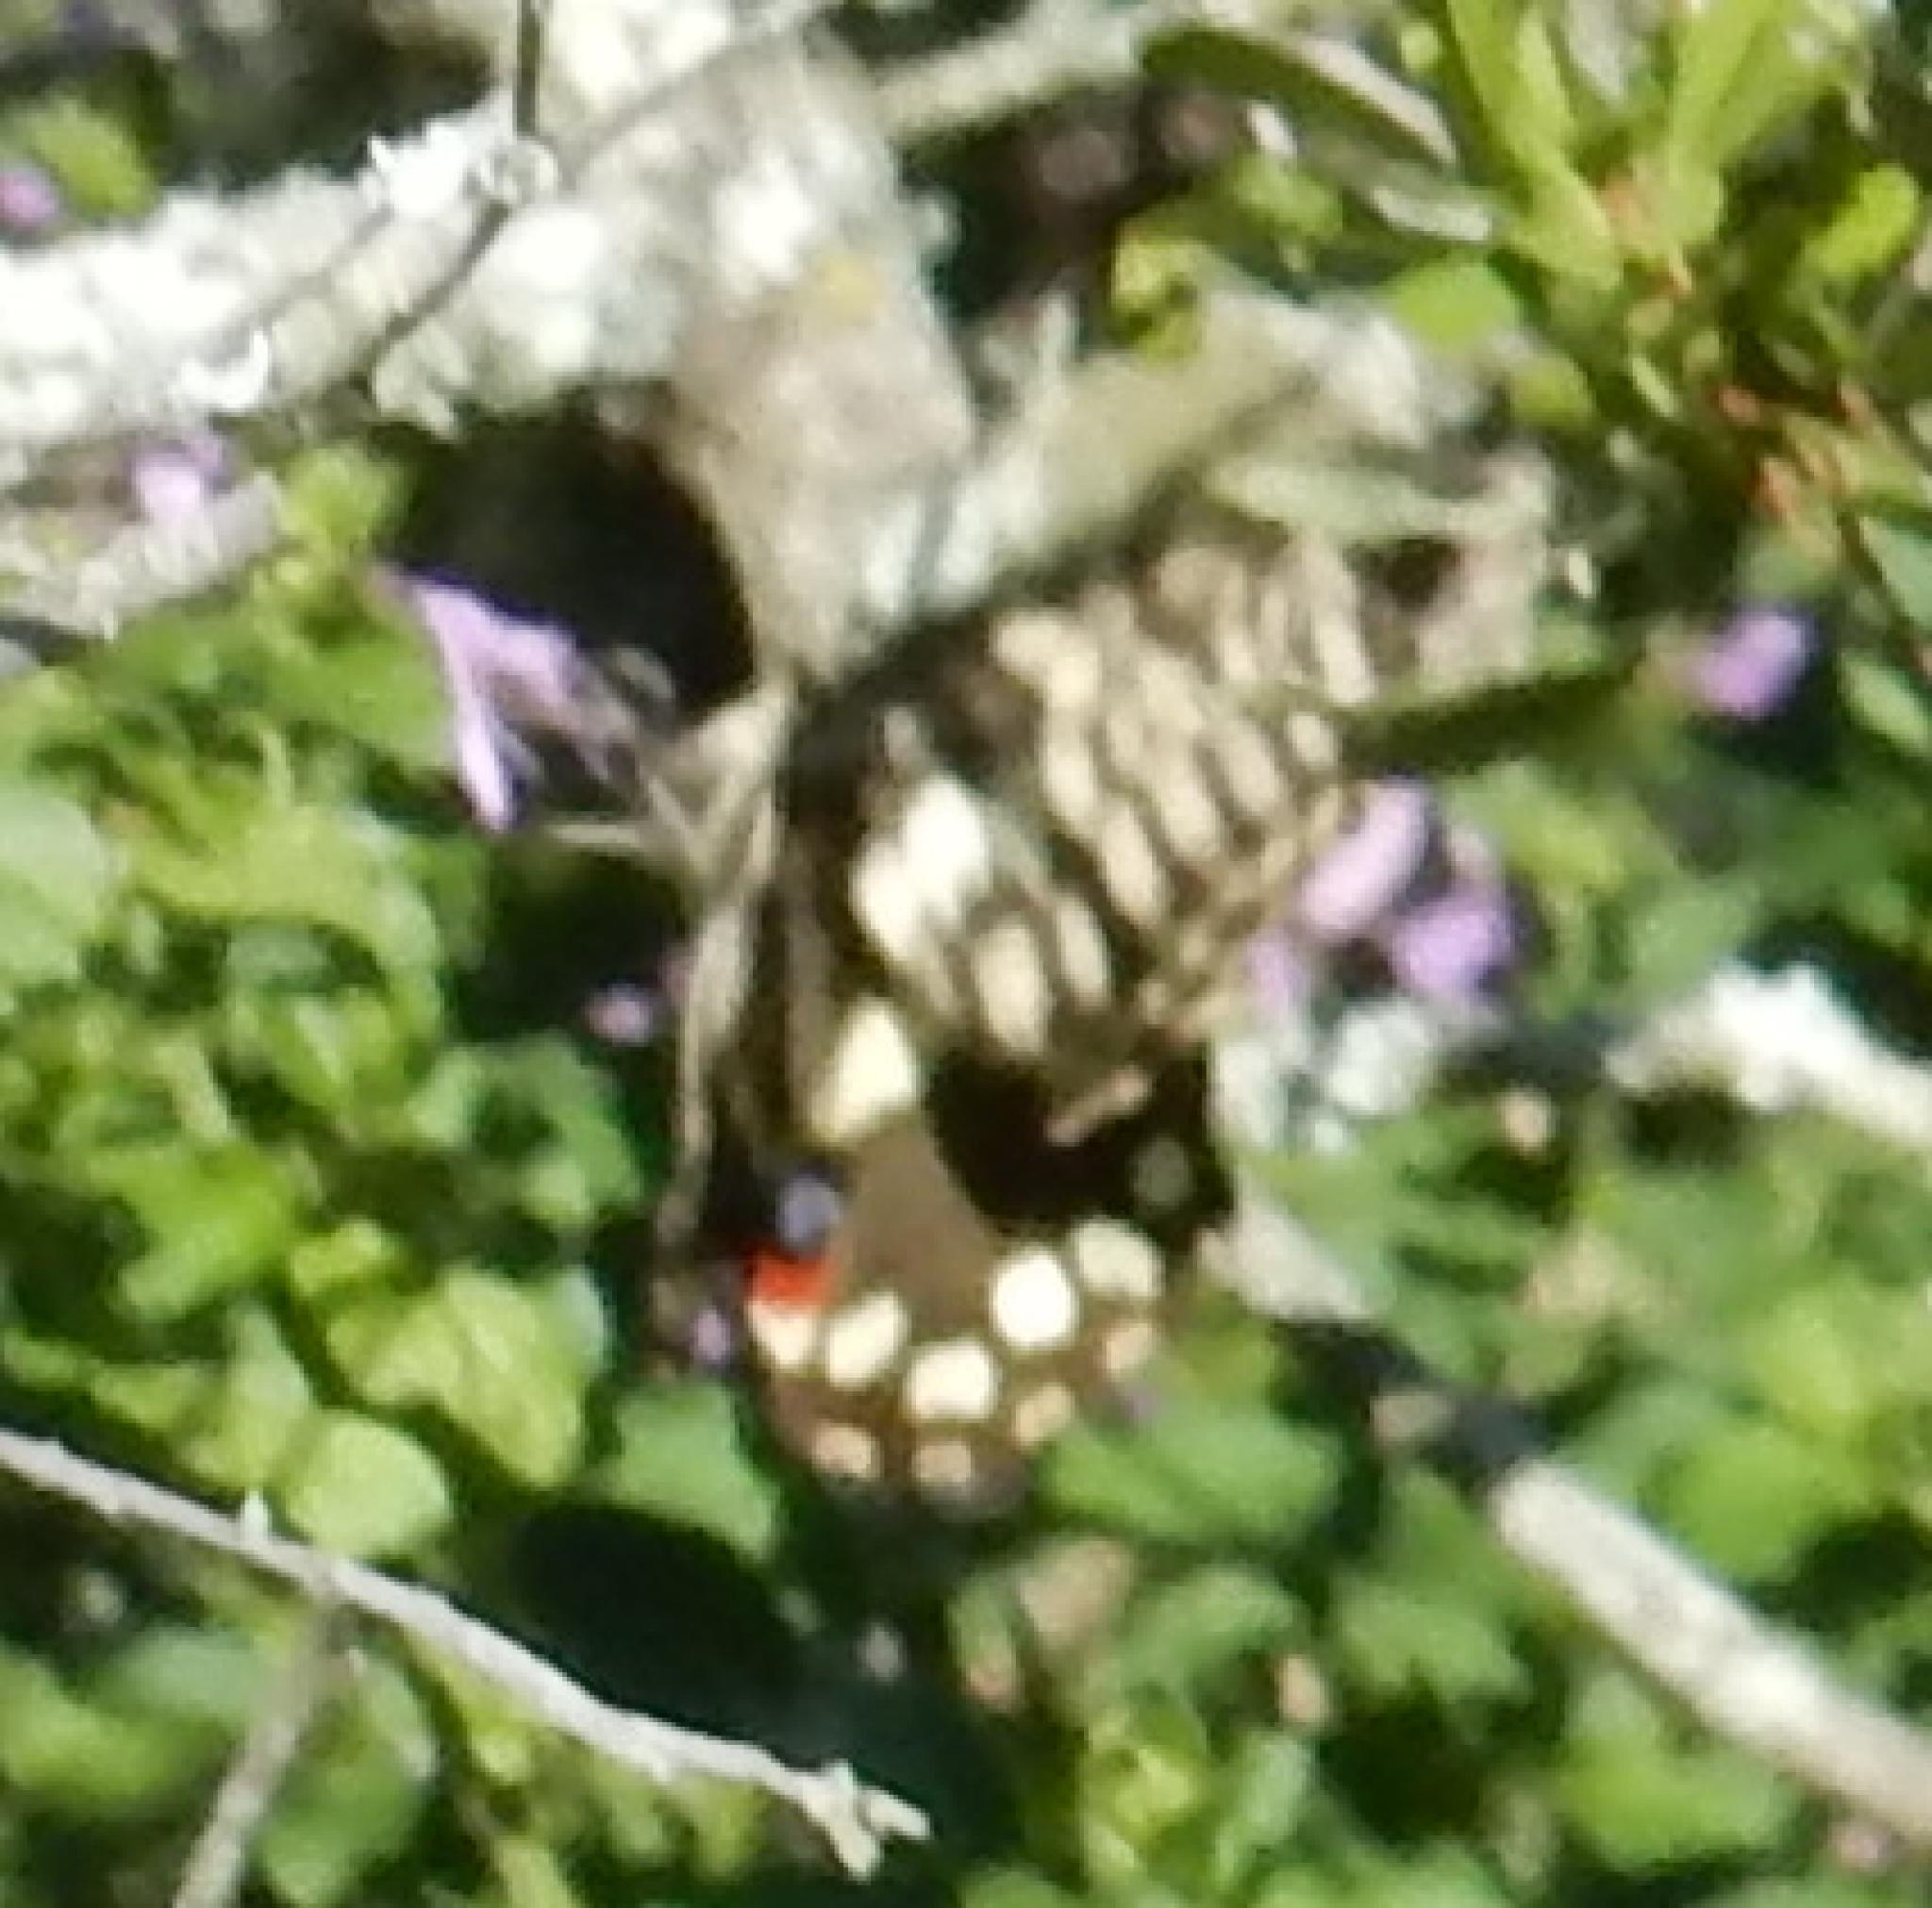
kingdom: Animalia
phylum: Arthropoda
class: Insecta
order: Lepidoptera
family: Papilionidae
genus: Papilio
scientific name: Papilio demodocus
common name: Christmas butterfly
